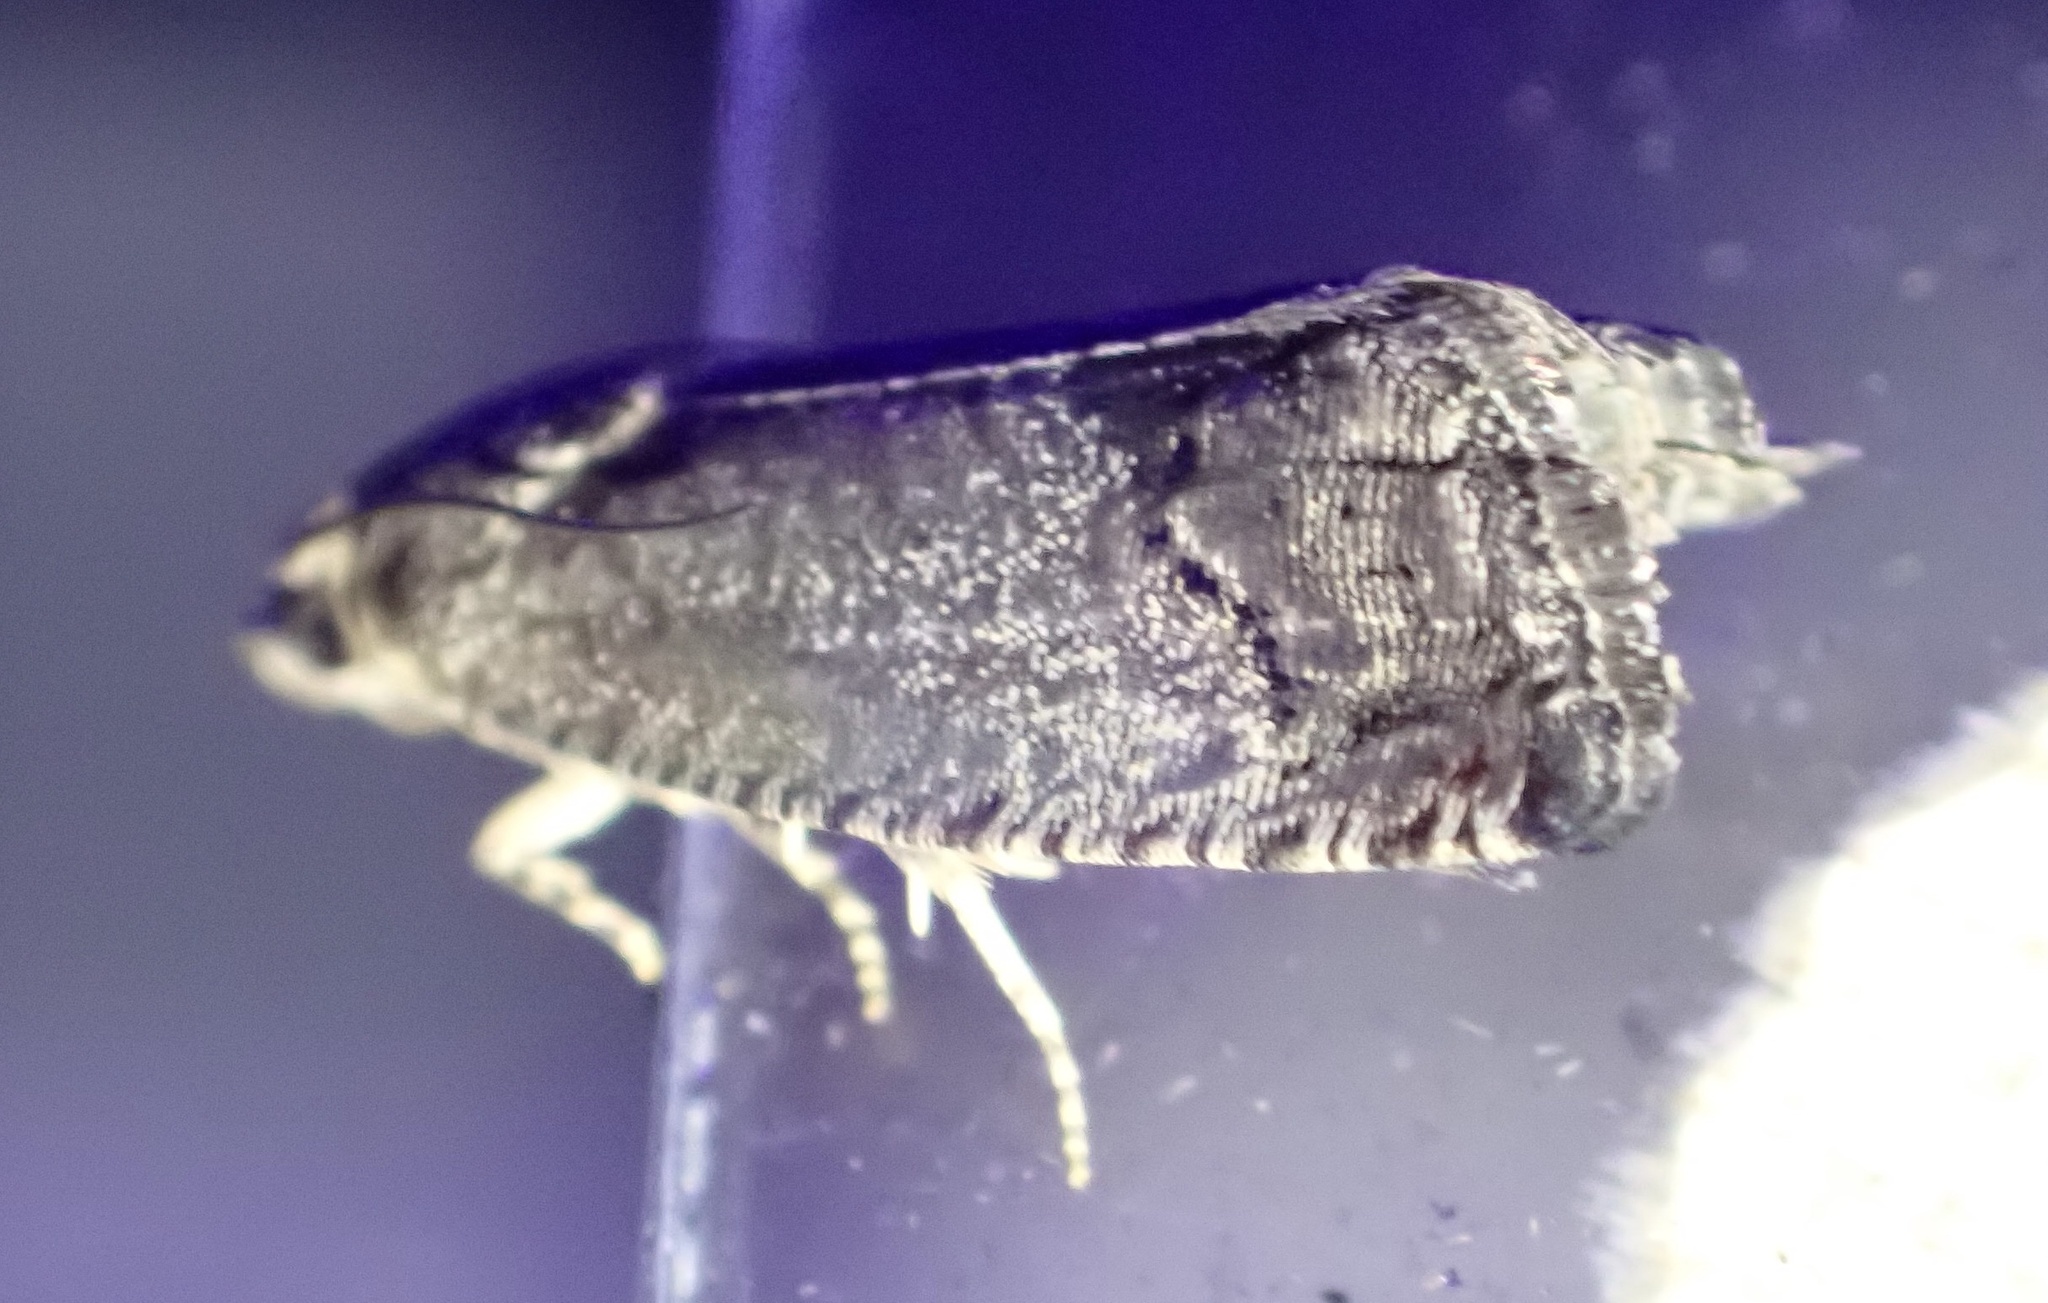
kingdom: Animalia
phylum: Arthropoda
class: Insecta
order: Lepidoptera
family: Tortricidae
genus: Cydia
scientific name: Cydia splendana
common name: De: kastanienwickler, eichenwickler es: oruga de la castaña fr: carpocapse des châtaignes it: cidia o tortrice tardiva delle castagne pt: bichado das castanhas gb: acorn moth, chestnut fruit tortrix
